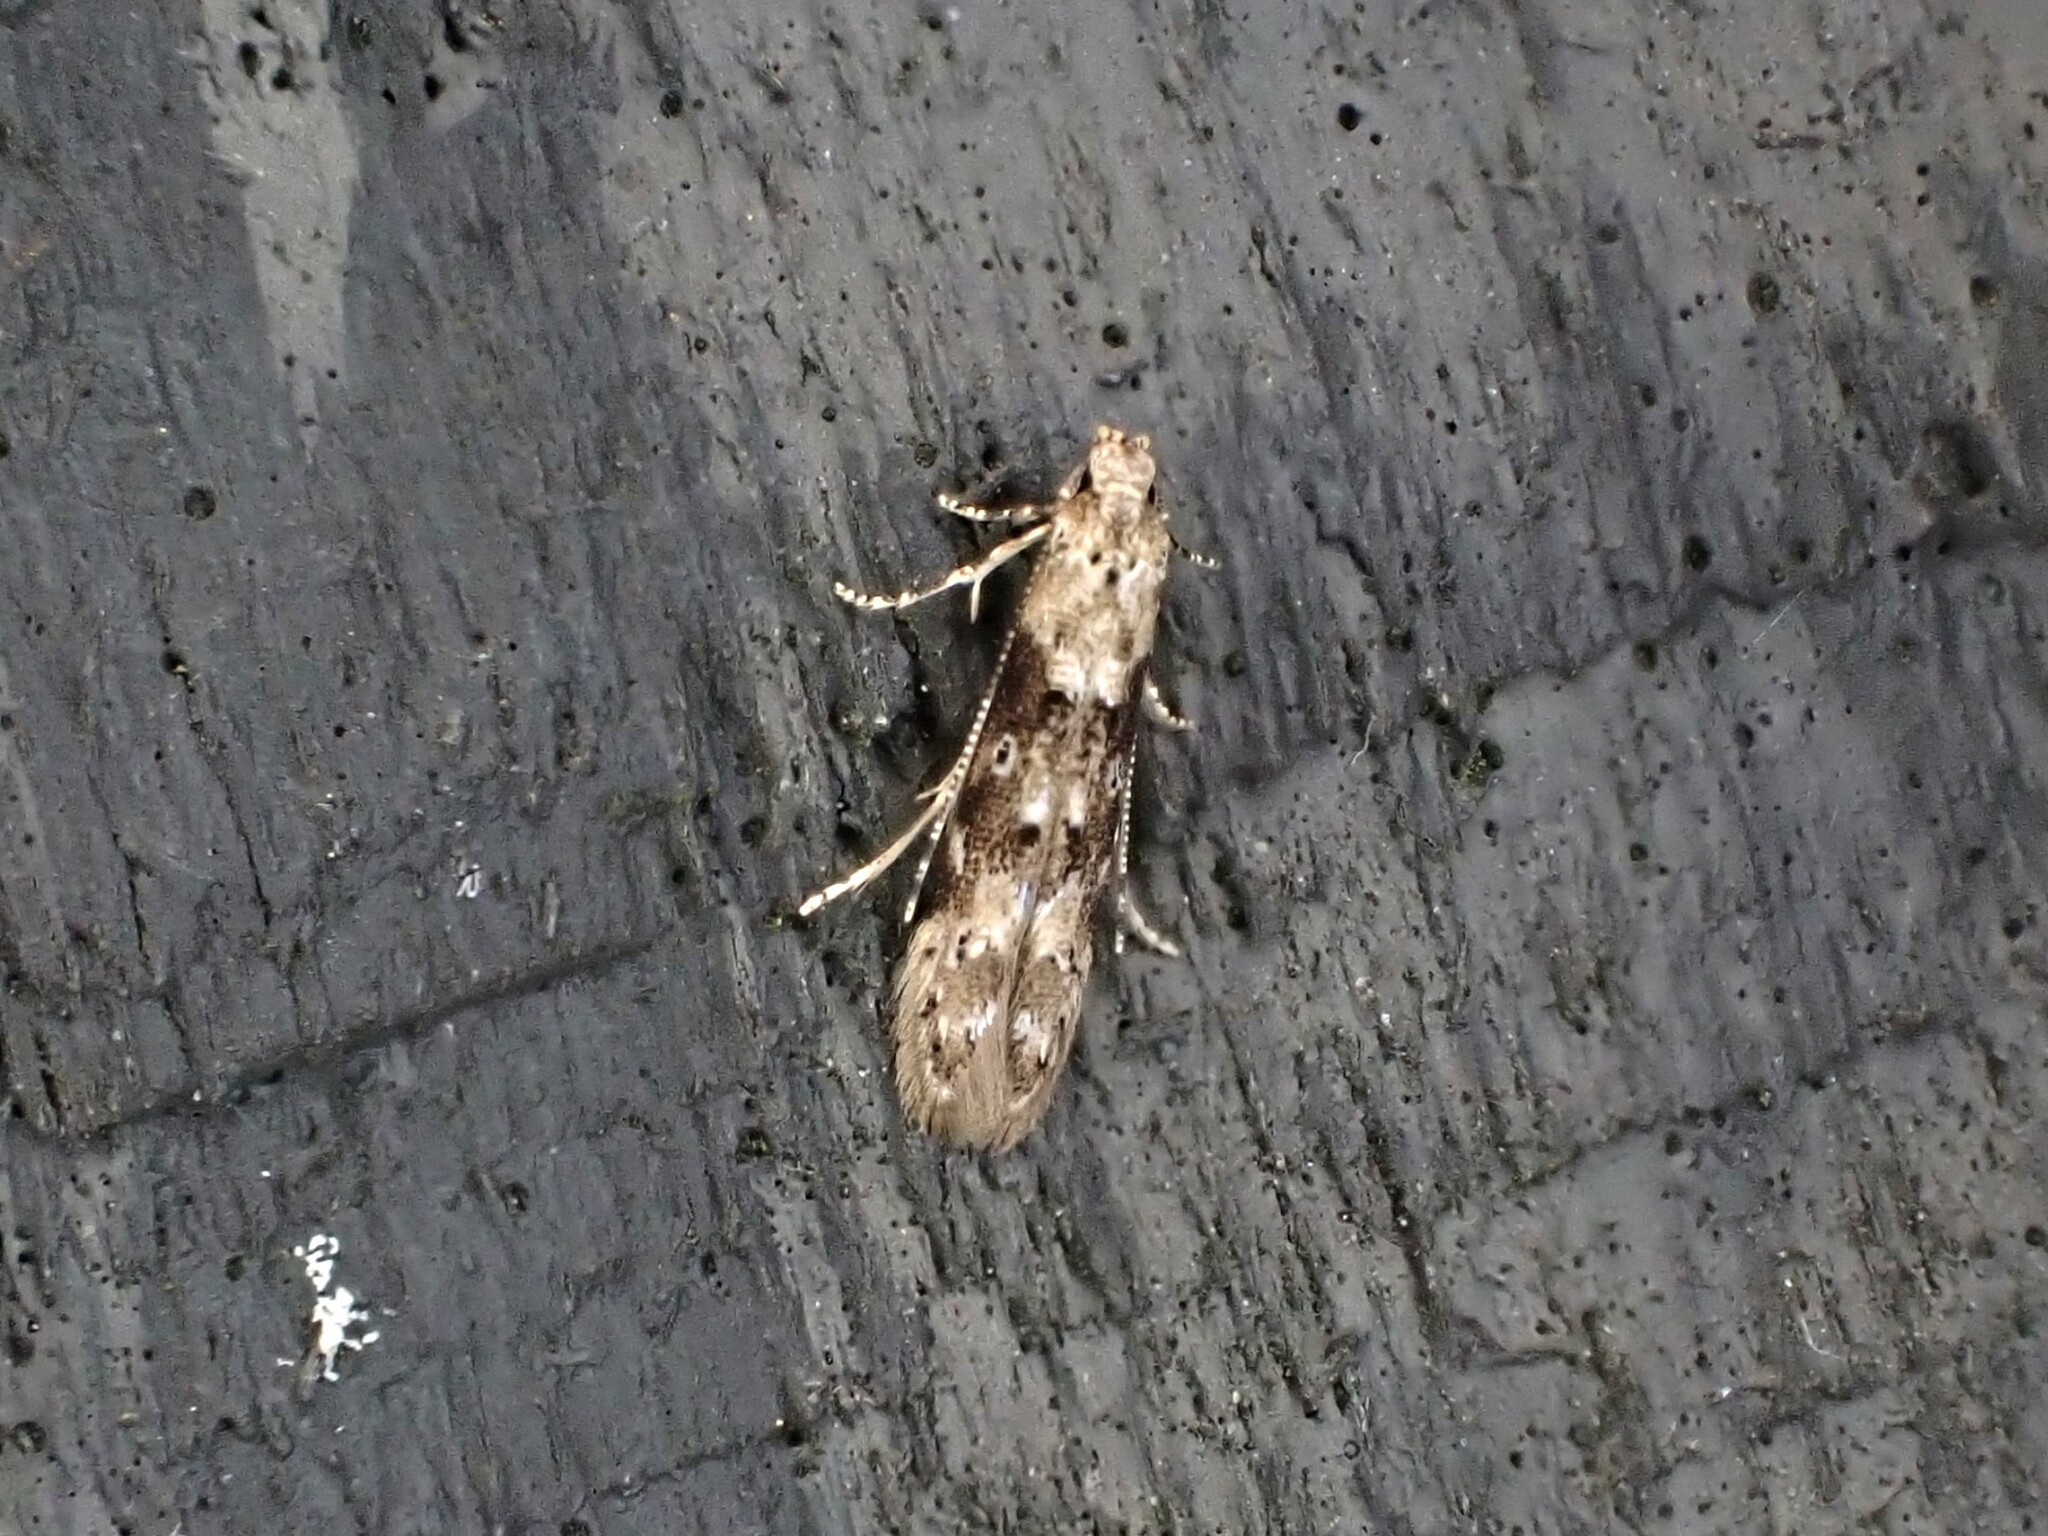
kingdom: Animalia
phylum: Arthropoda
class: Insecta
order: Lepidoptera
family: Elachistidae
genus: Microcolona
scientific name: Microcolona limodes
